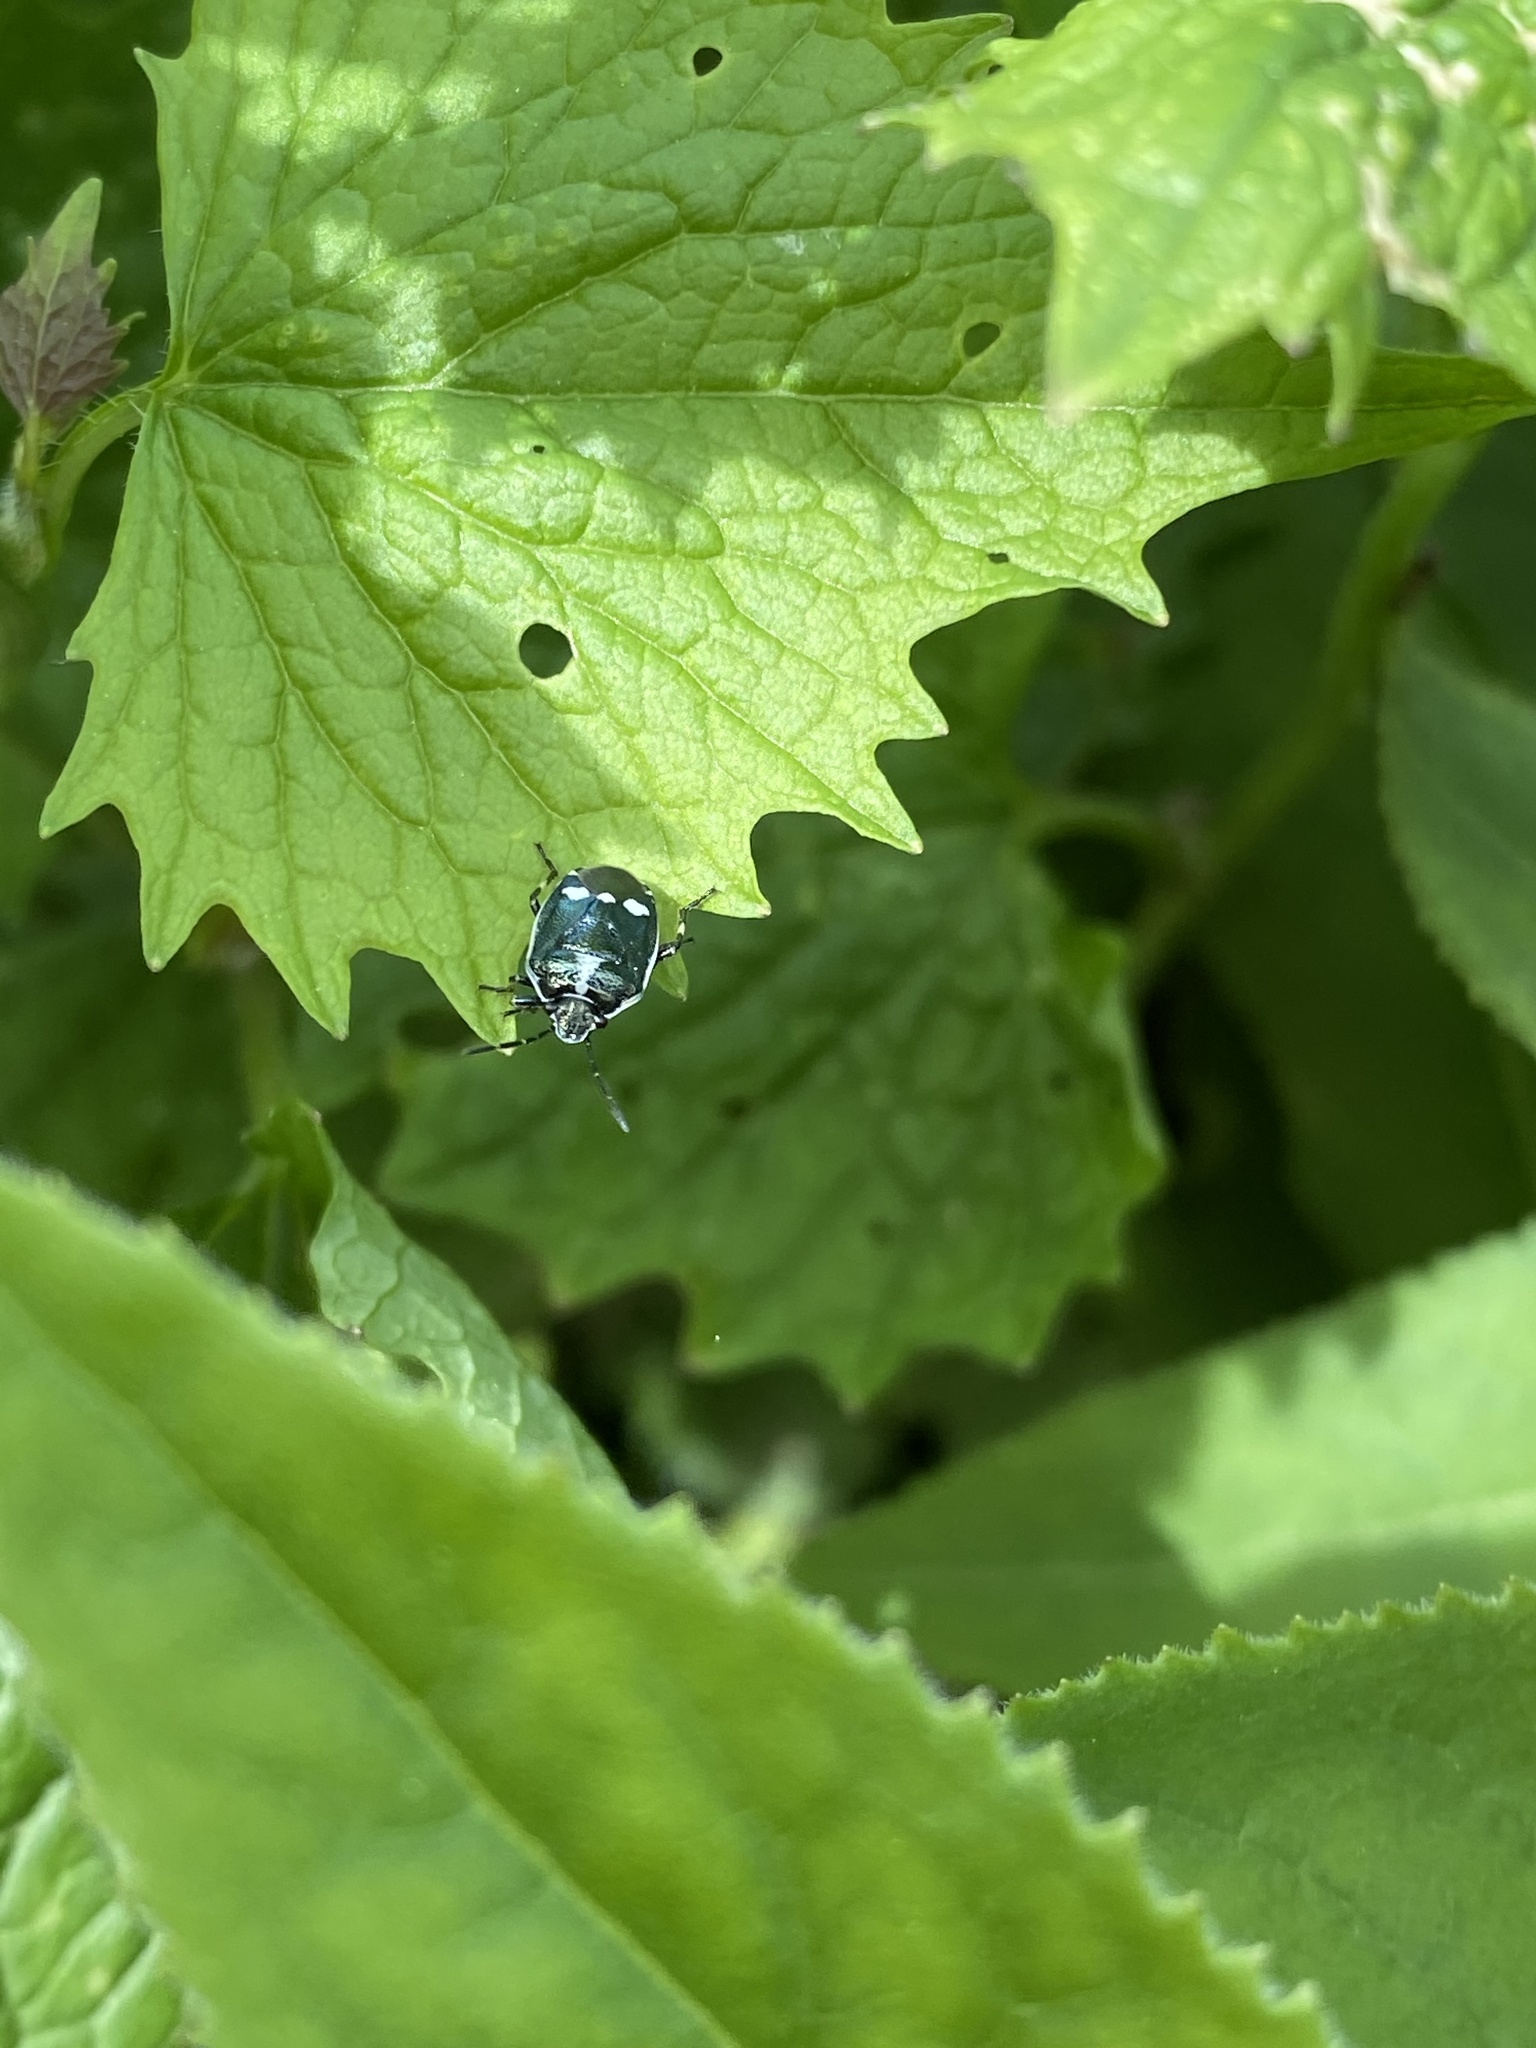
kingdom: Animalia
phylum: Arthropoda
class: Insecta
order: Hemiptera
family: Pentatomidae
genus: Eurydema
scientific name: Eurydema oleracea
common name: Cabbage bug
